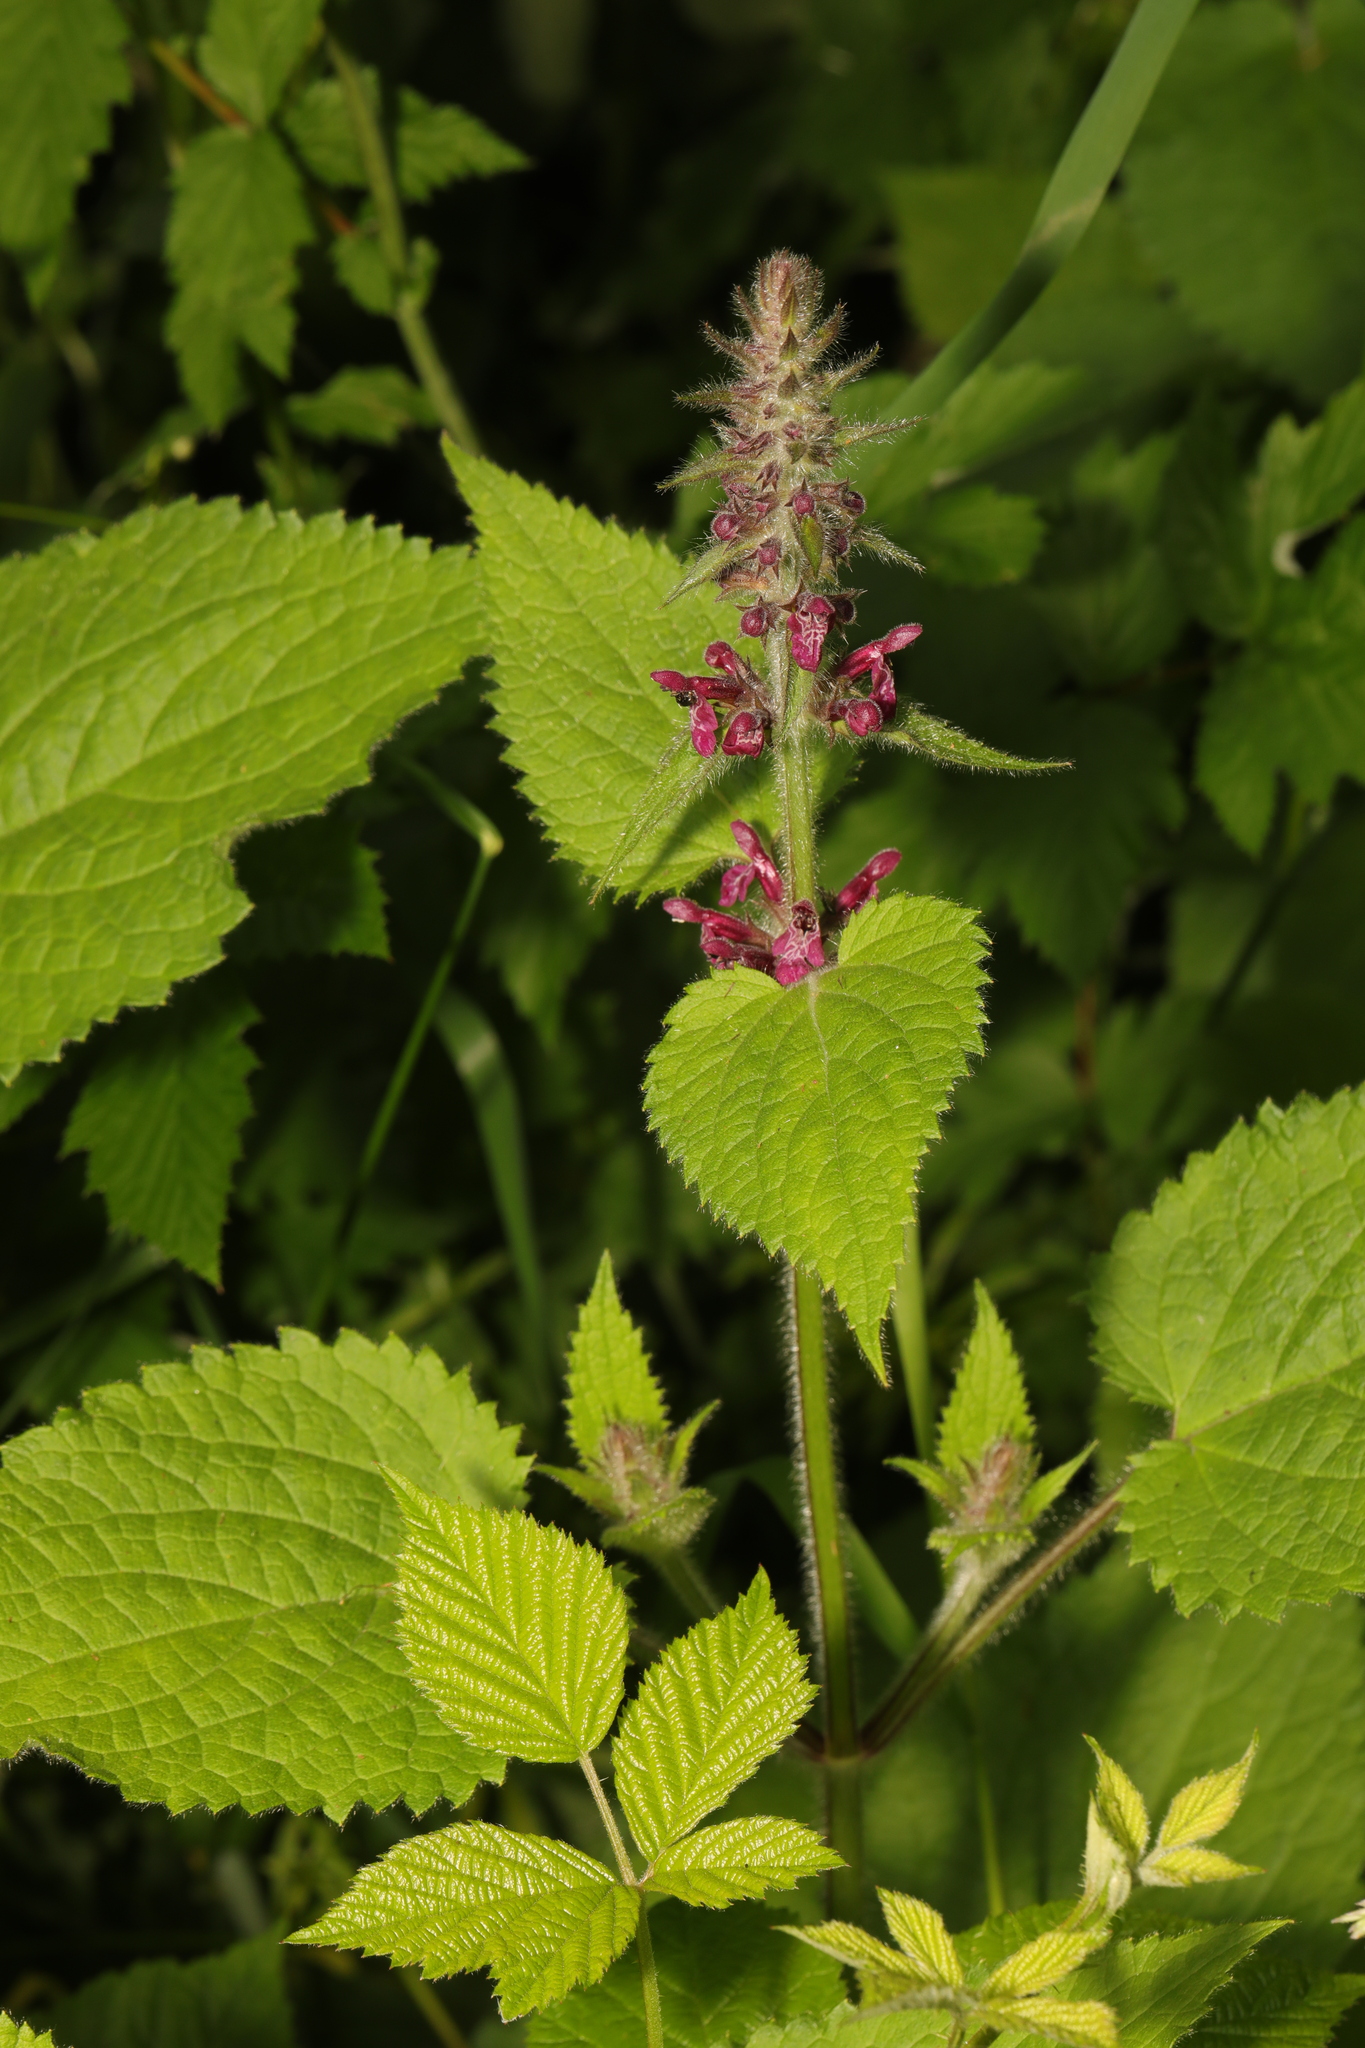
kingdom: Plantae
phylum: Tracheophyta
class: Magnoliopsida
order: Lamiales
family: Lamiaceae
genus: Stachys
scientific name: Stachys sylvatica
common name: Hedge woundwort
